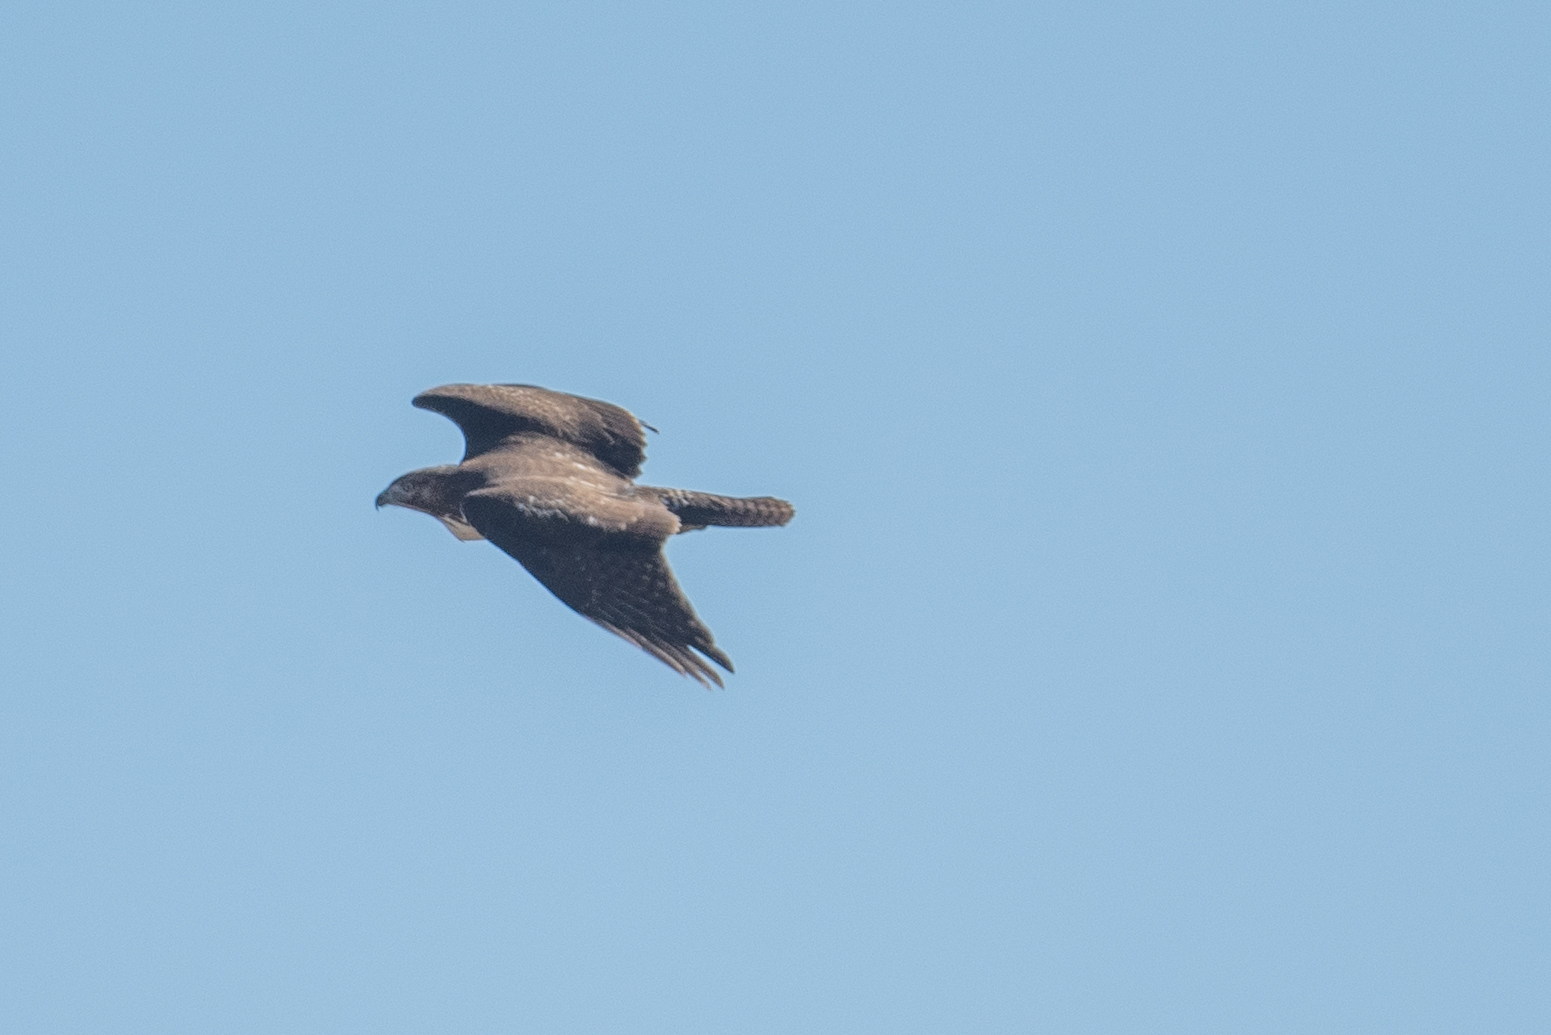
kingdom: Animalia
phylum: Chordata
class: Aves
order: Accipitriformes
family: Accipitridae
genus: Buteo
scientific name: Buteo jamaicensis
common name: Red-tailed hawk
